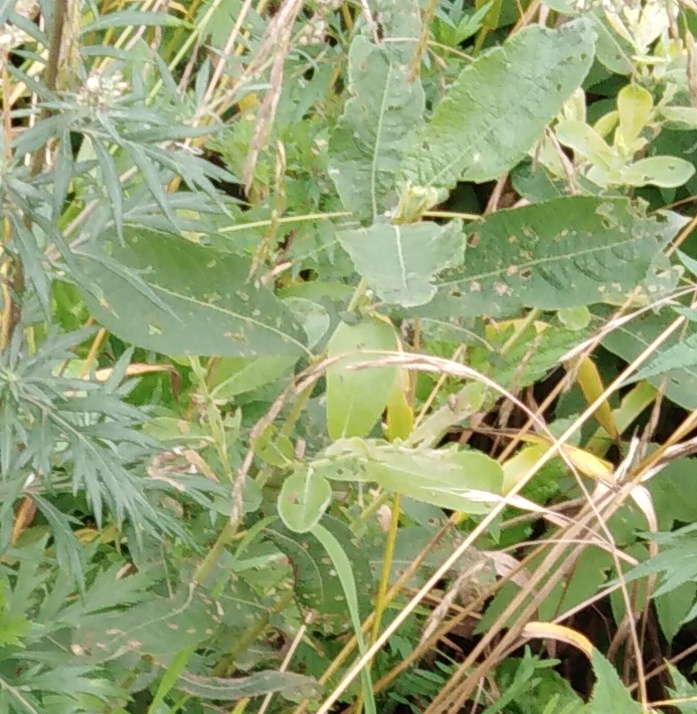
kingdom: Plantae
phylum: Tracheophyta
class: Magnoliopsida
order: Malpighiales
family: Salicaceae
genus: Salix
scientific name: Salix cinerea
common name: Common sallow
